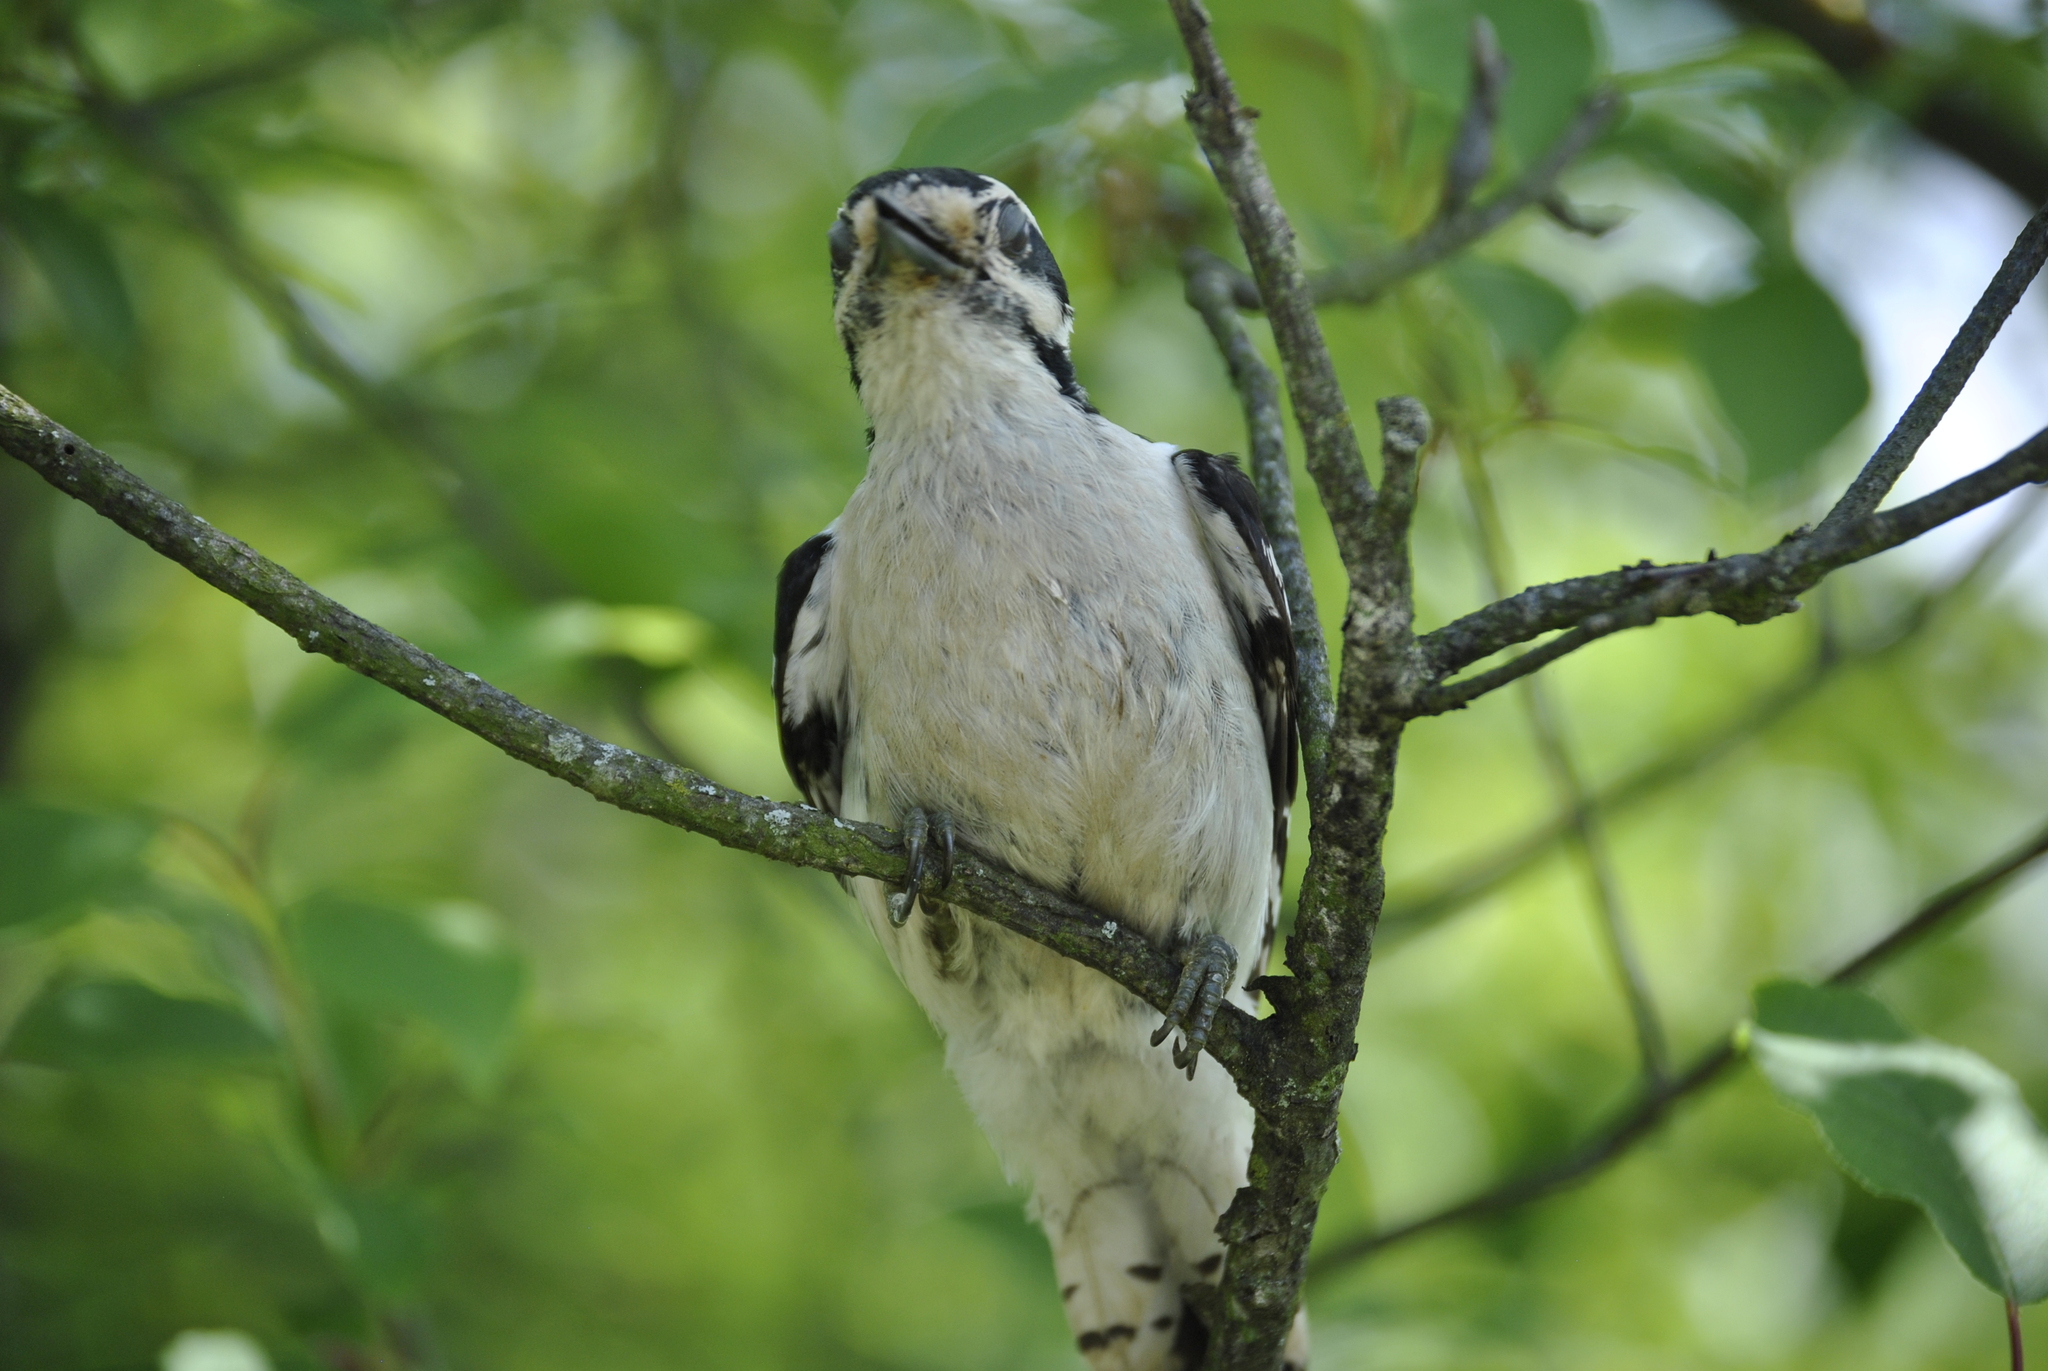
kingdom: Animalia
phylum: Chordata
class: Aves
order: Piciformes
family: Picidae
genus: Dryobates
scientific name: Dryobates pubescens
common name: Downy woodpecker
